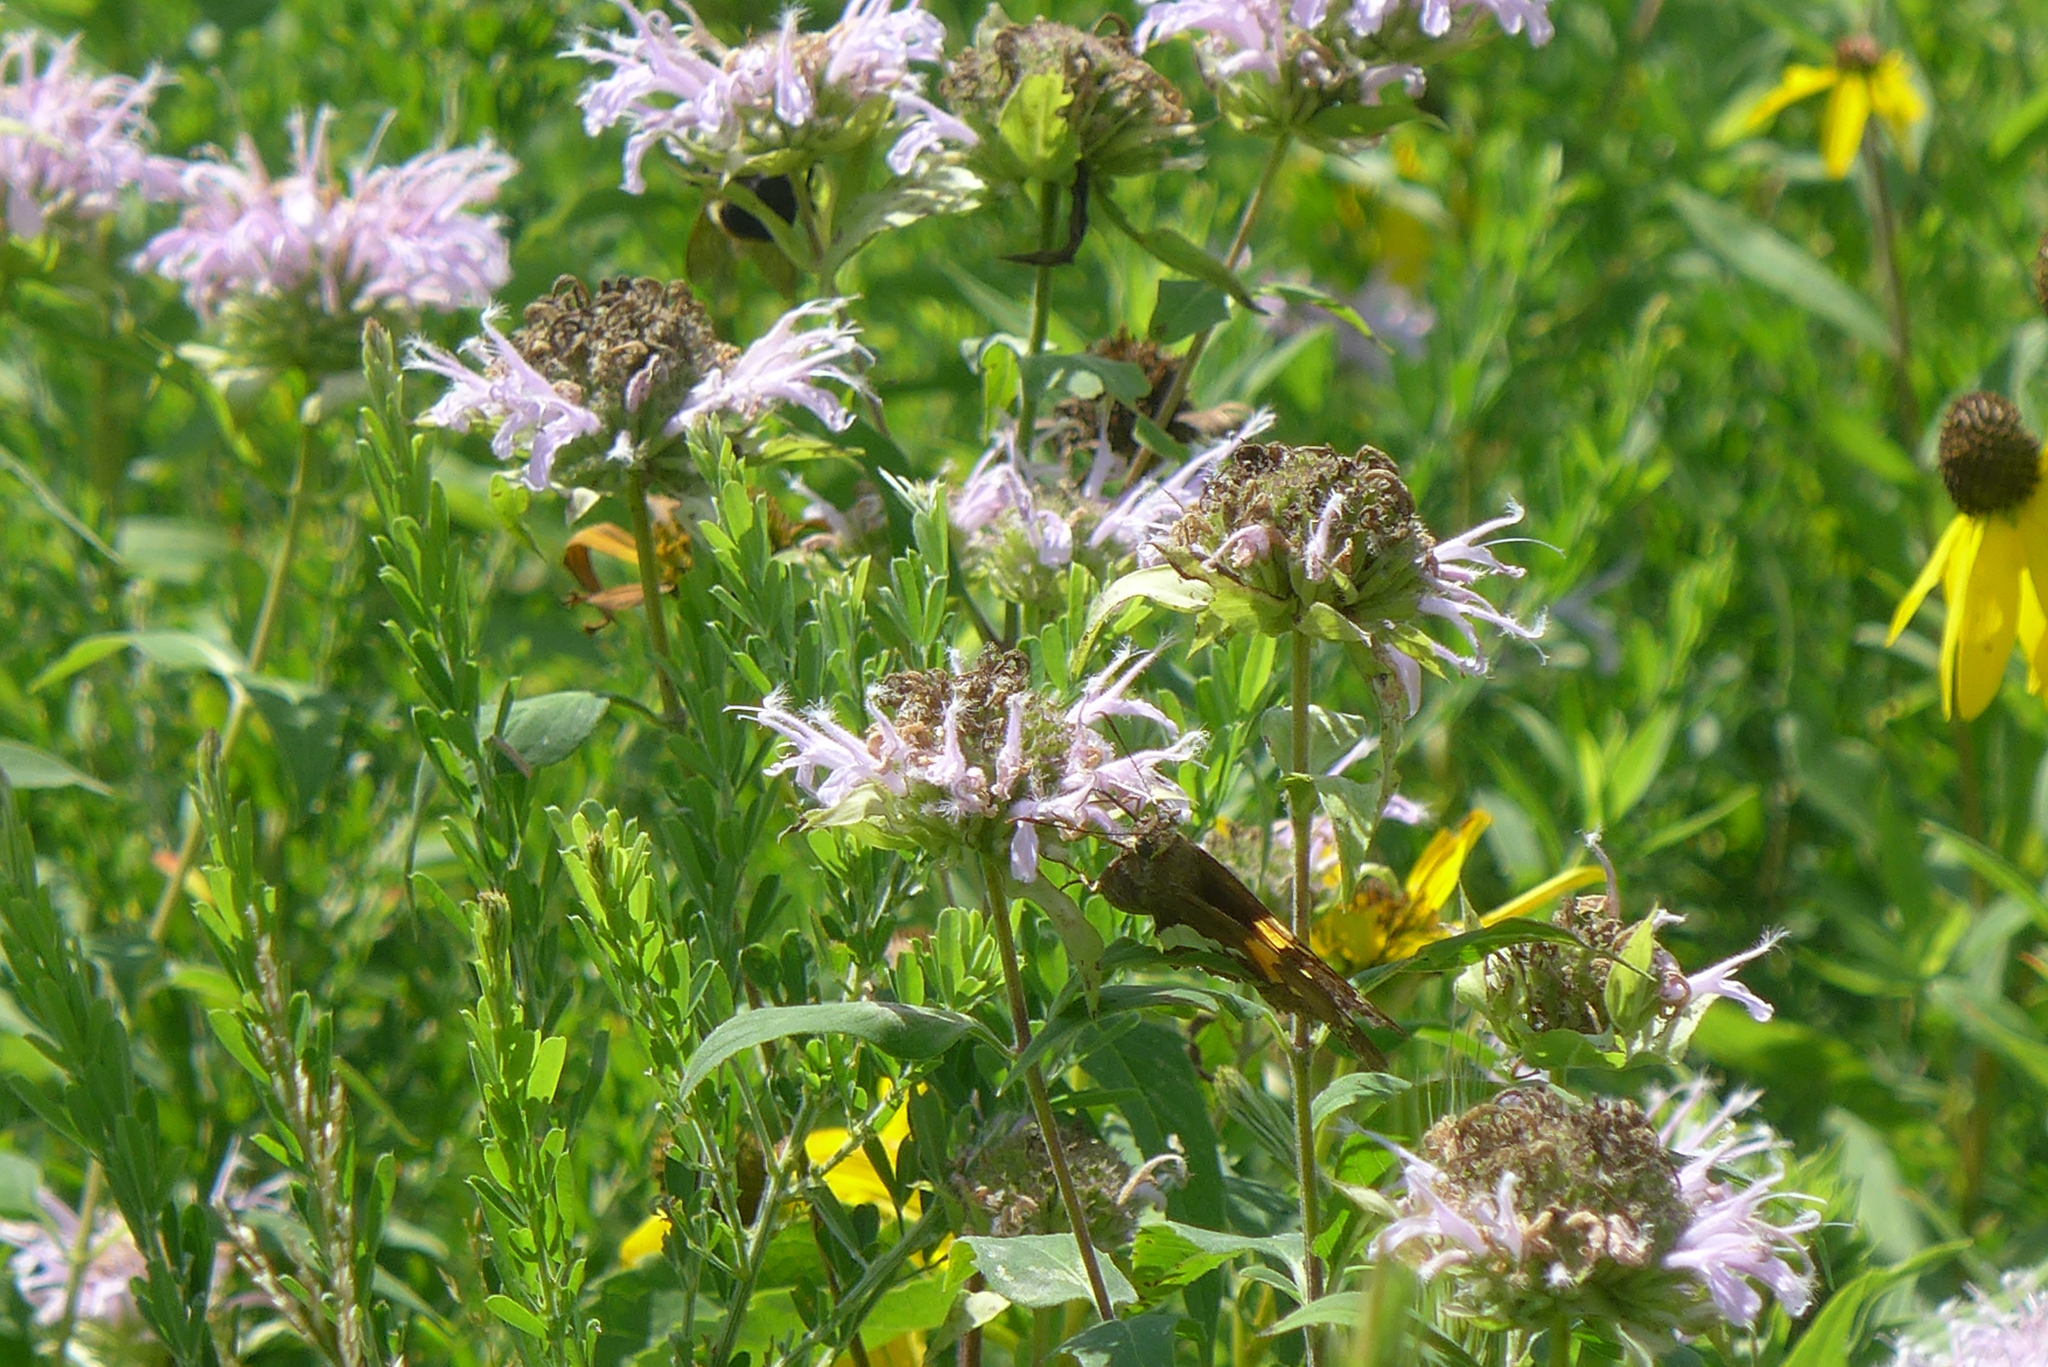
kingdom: Animalia
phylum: Arthropoda
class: Insecta
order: Lepidoptera
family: Hesperiidae
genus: Epargyreus
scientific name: Epargyreus clarus
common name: Silver-spotted skipper
